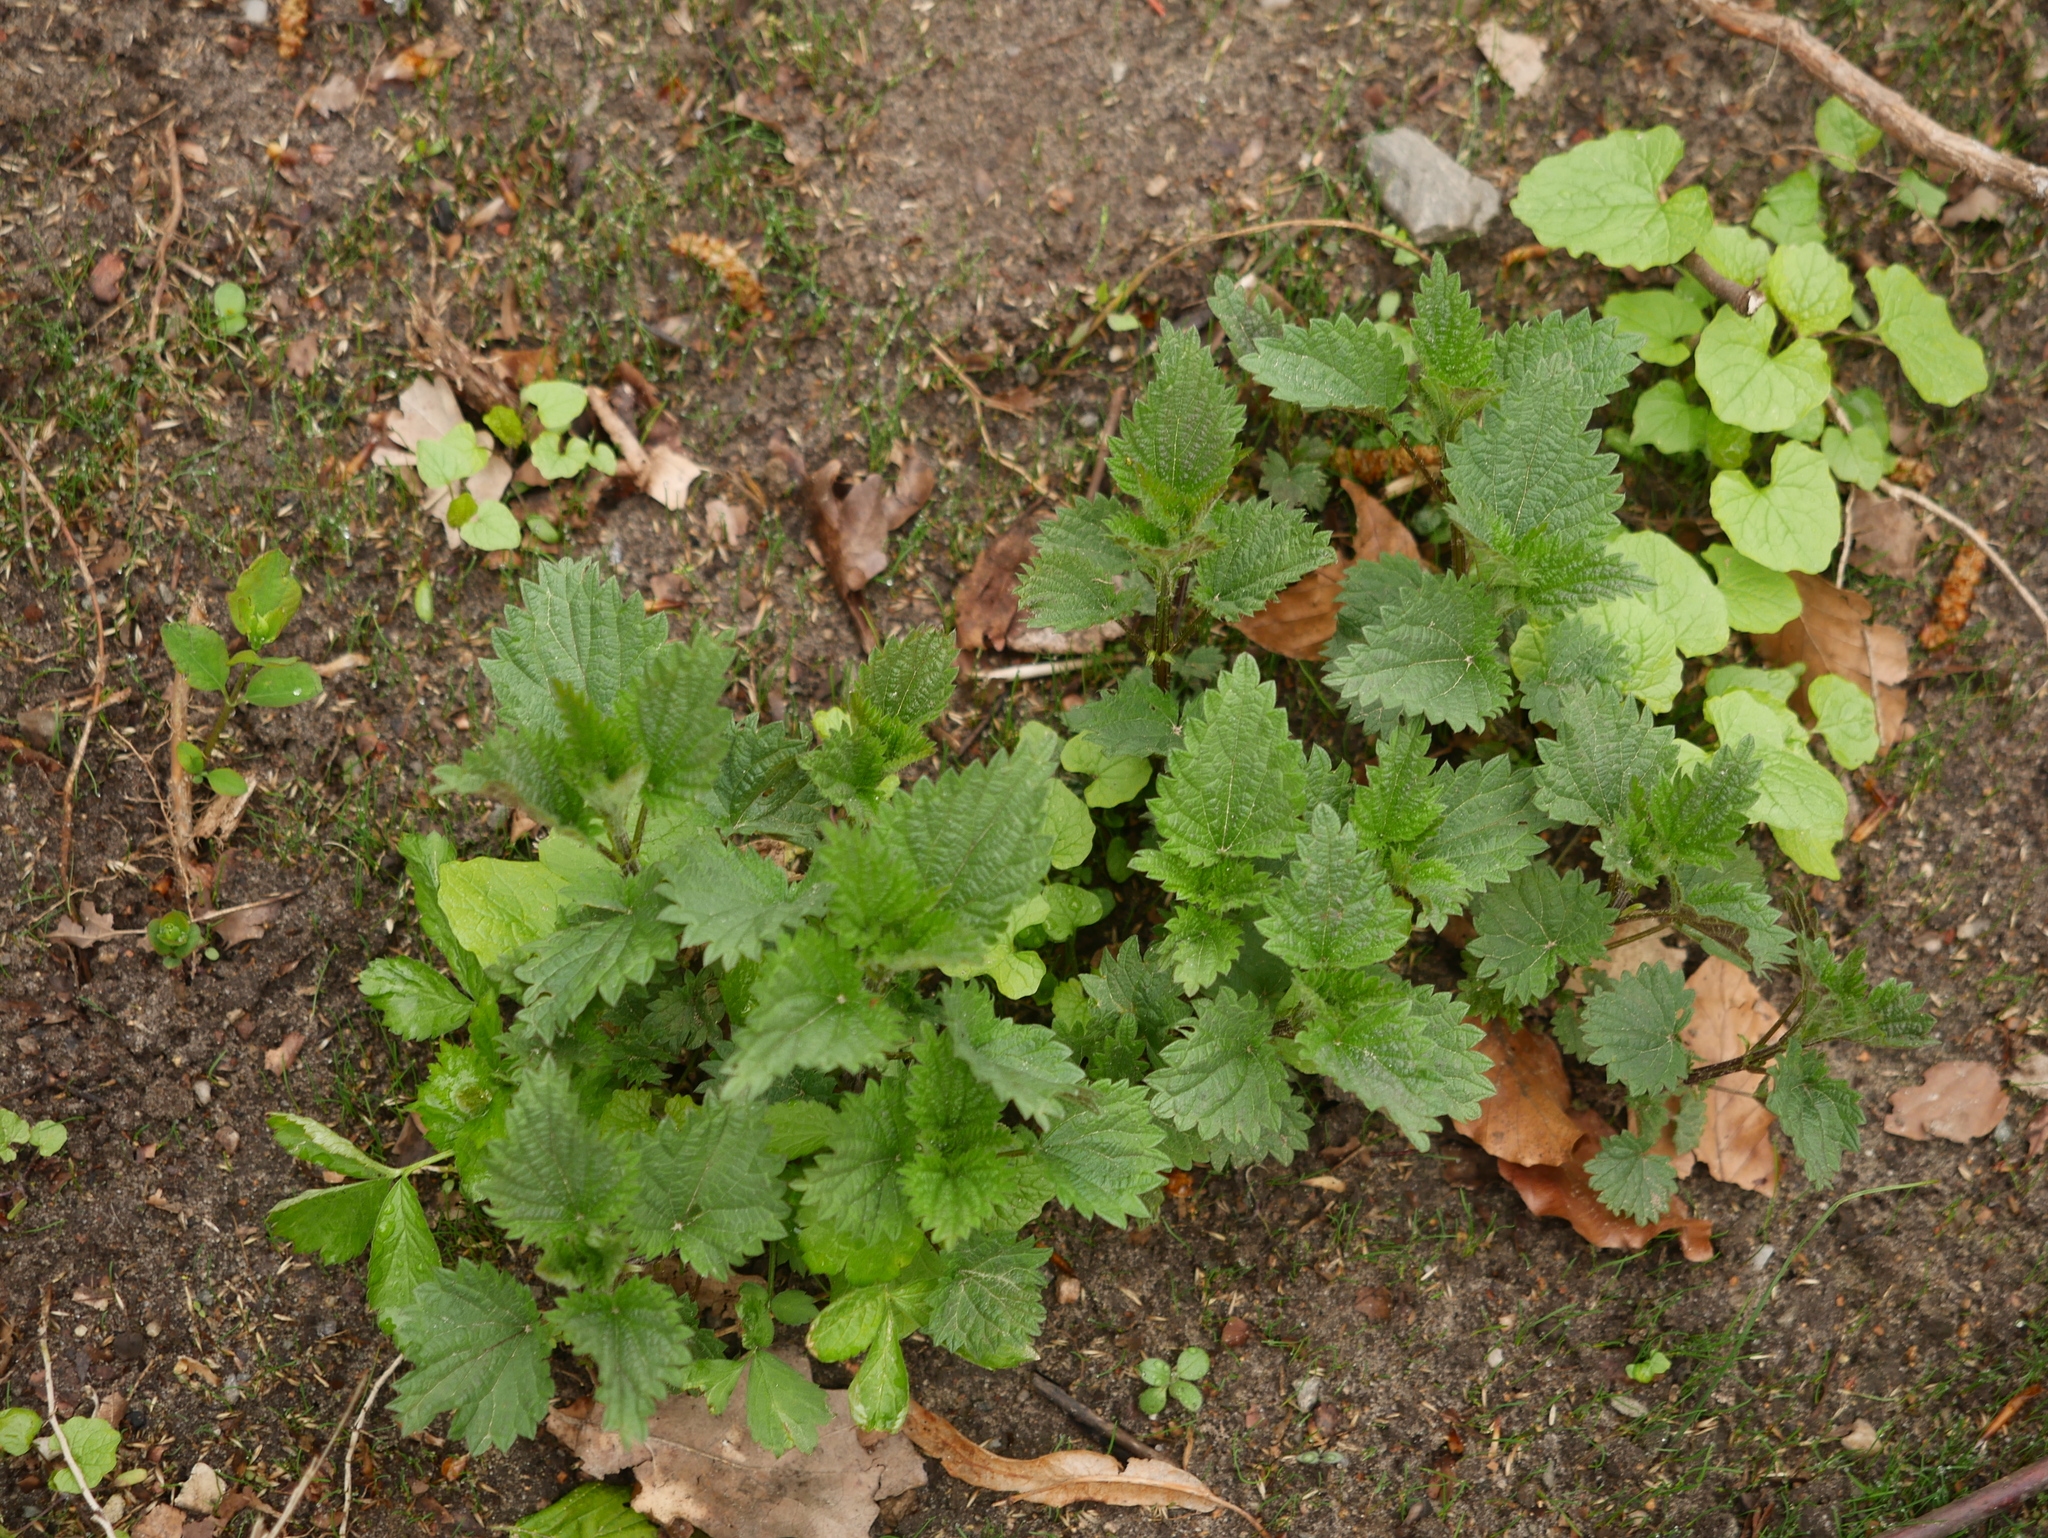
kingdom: Plantae
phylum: Tracheophyta
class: Magnoliopsida
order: Rosales
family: Urticaceae
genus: Urtica
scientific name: Urtica dioica
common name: Common nettle
